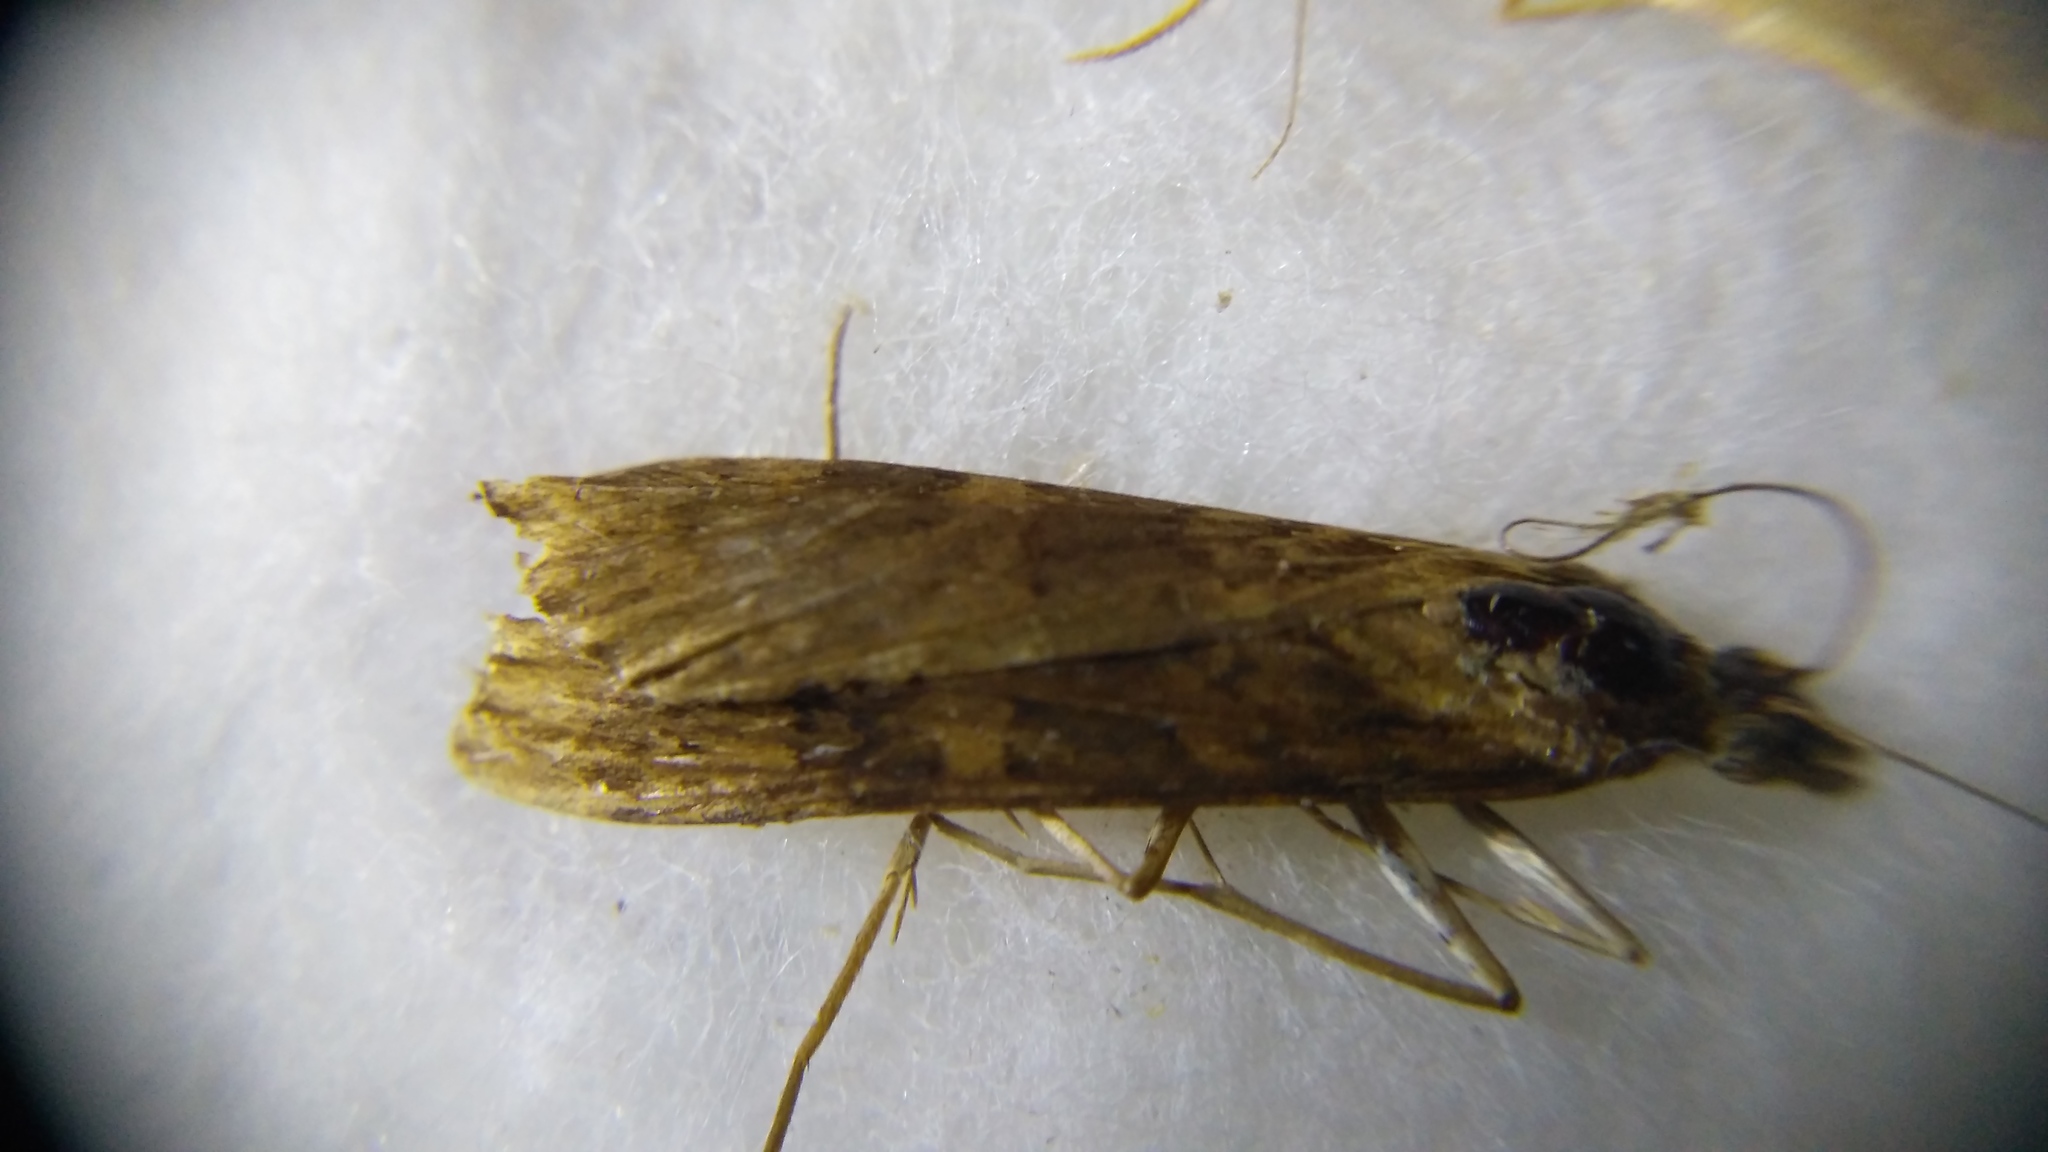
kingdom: Animalia
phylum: Arthropoda
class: Insecta
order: Lepidoptera
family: Crambidae
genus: Nomophila
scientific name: Nomophila noctuella
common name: Rush veneer
